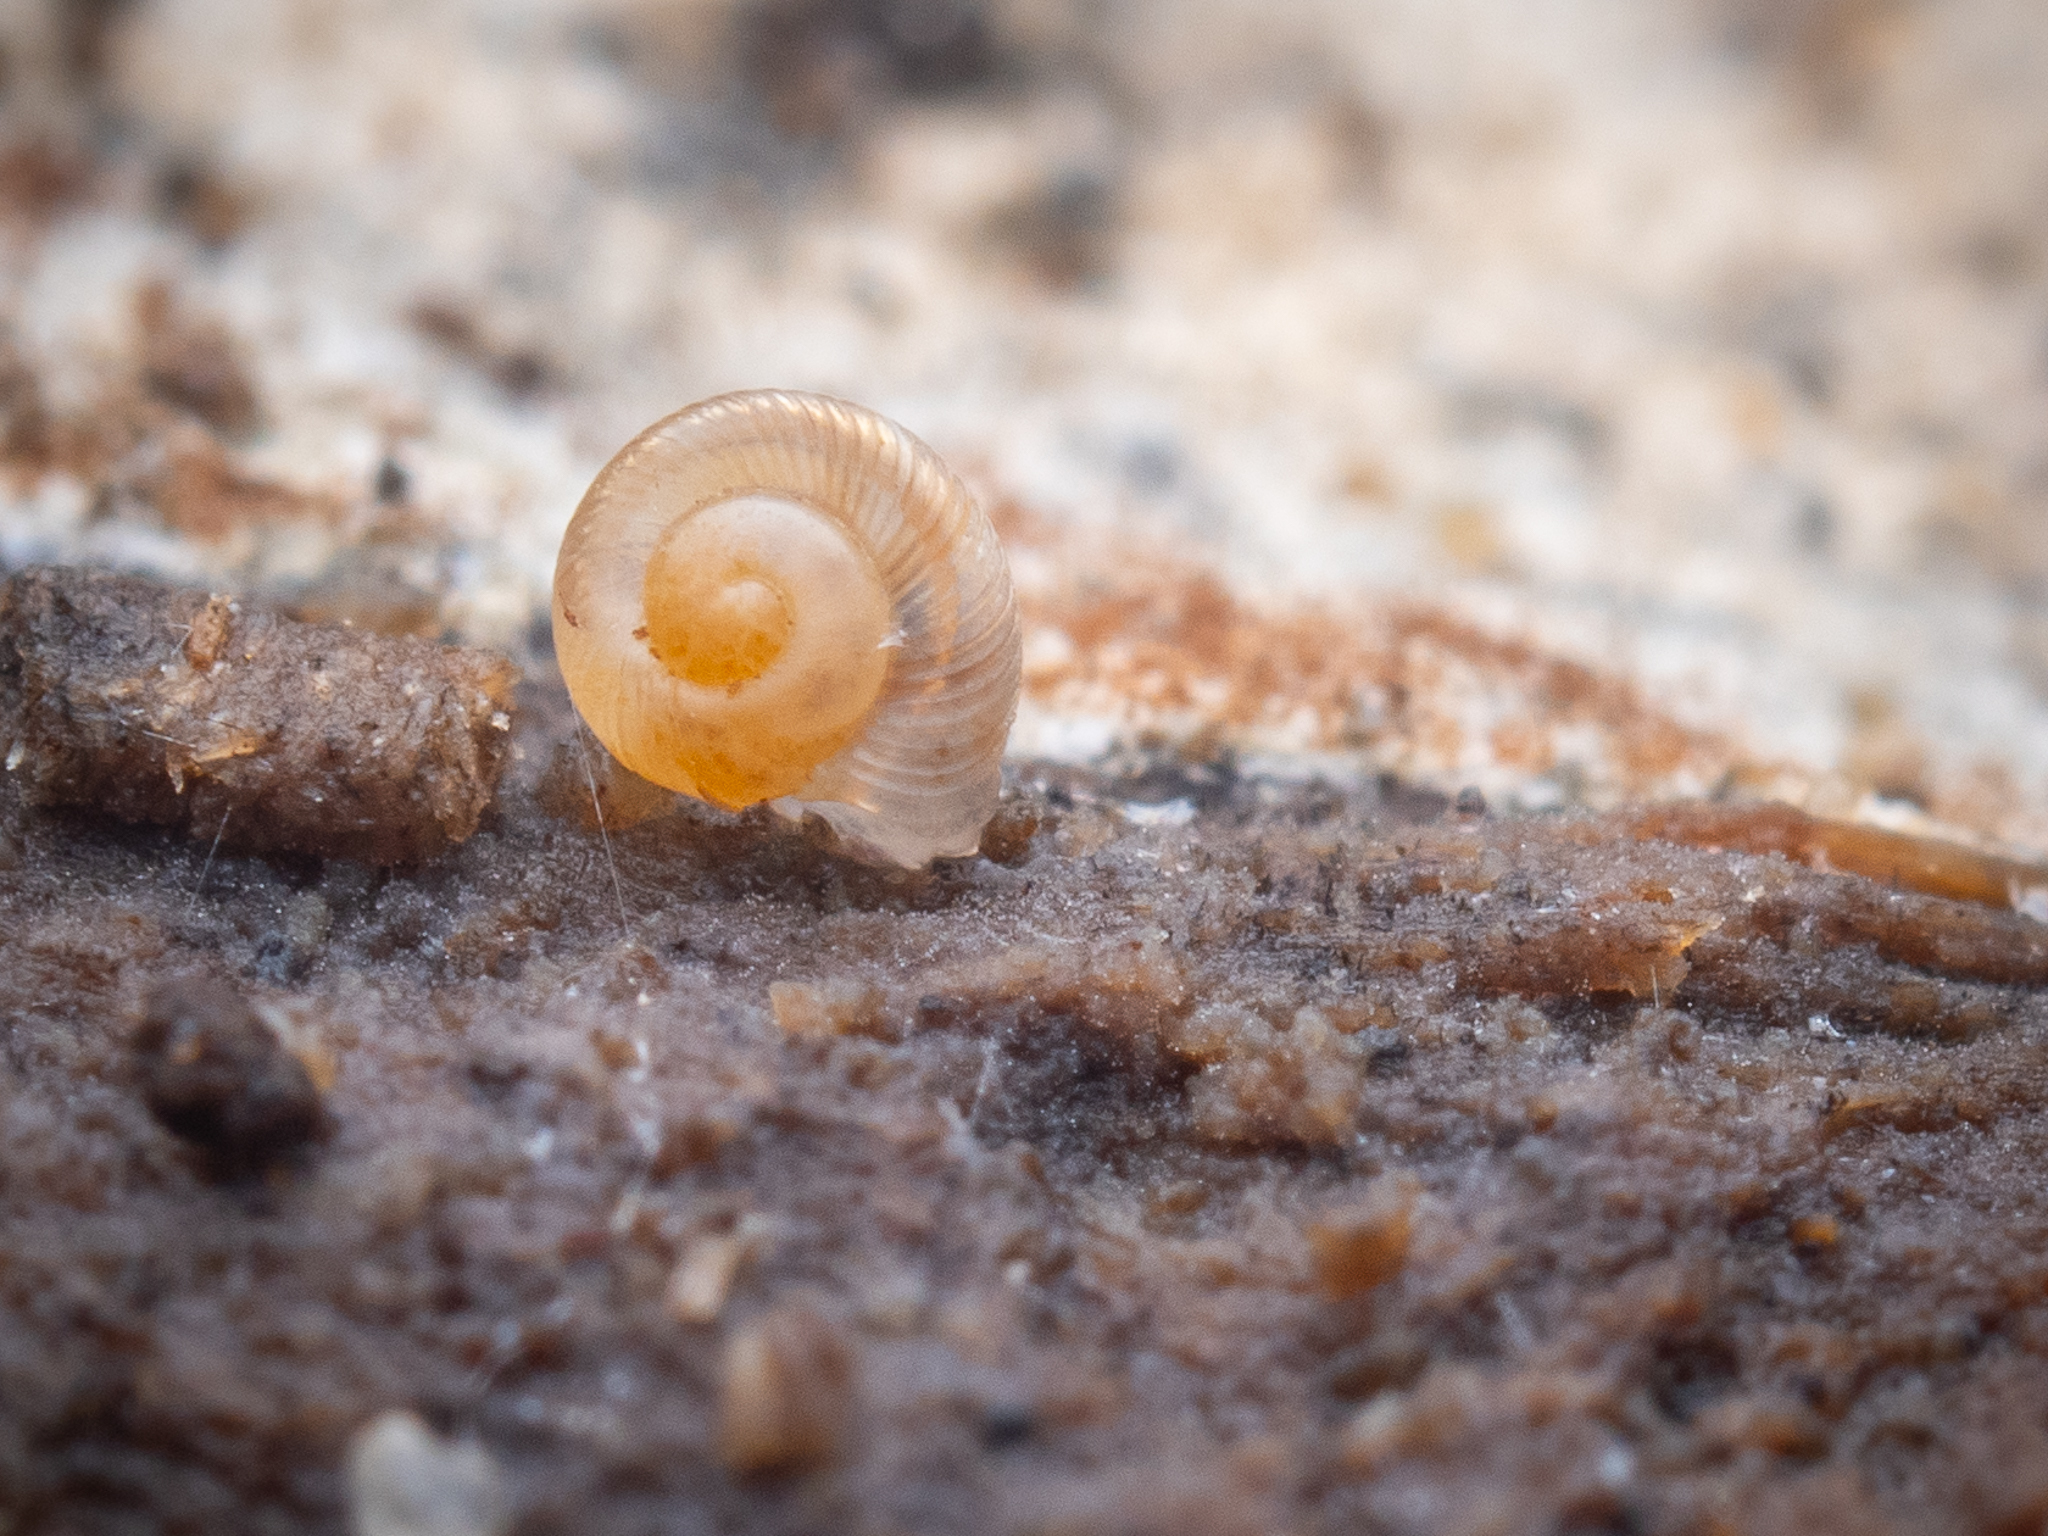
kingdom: Animalia
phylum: Mollusca
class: Gastropoda
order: Stylommatophora
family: Discidae
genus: Discus
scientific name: Discus rotundatus
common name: Rounded snail
